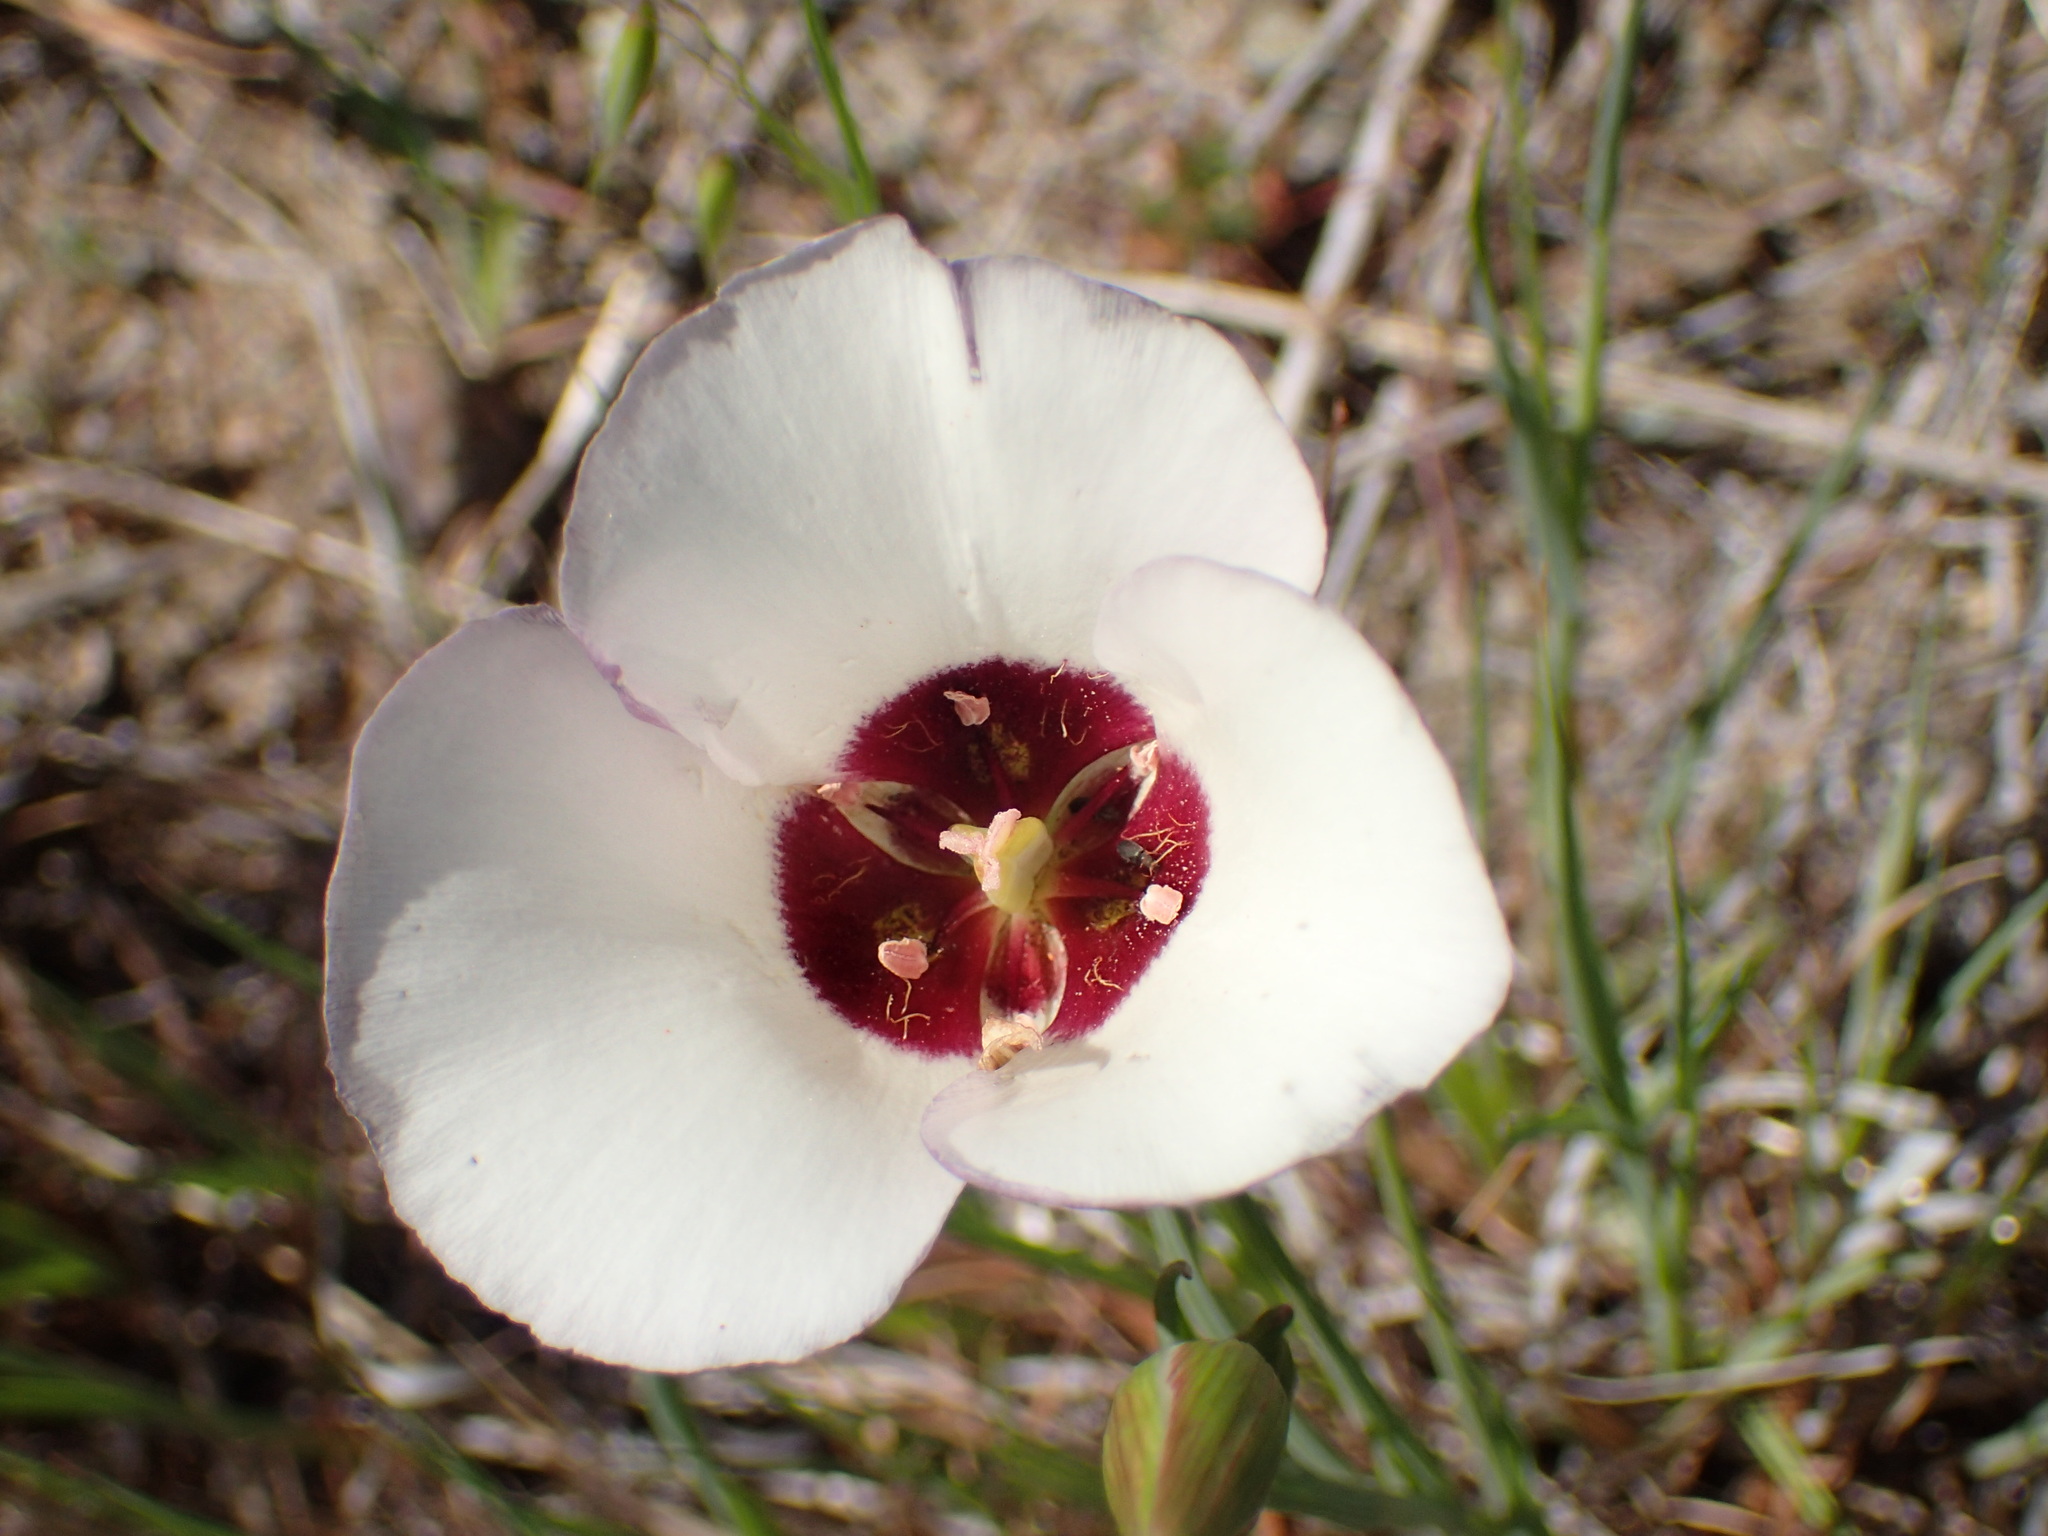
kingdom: Plantae
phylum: Tracheophyta
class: Liliopsida
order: Liliales
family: Liliaceae
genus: Calochortus
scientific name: Calochortus catalinae
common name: Catalina mariposa-lily
